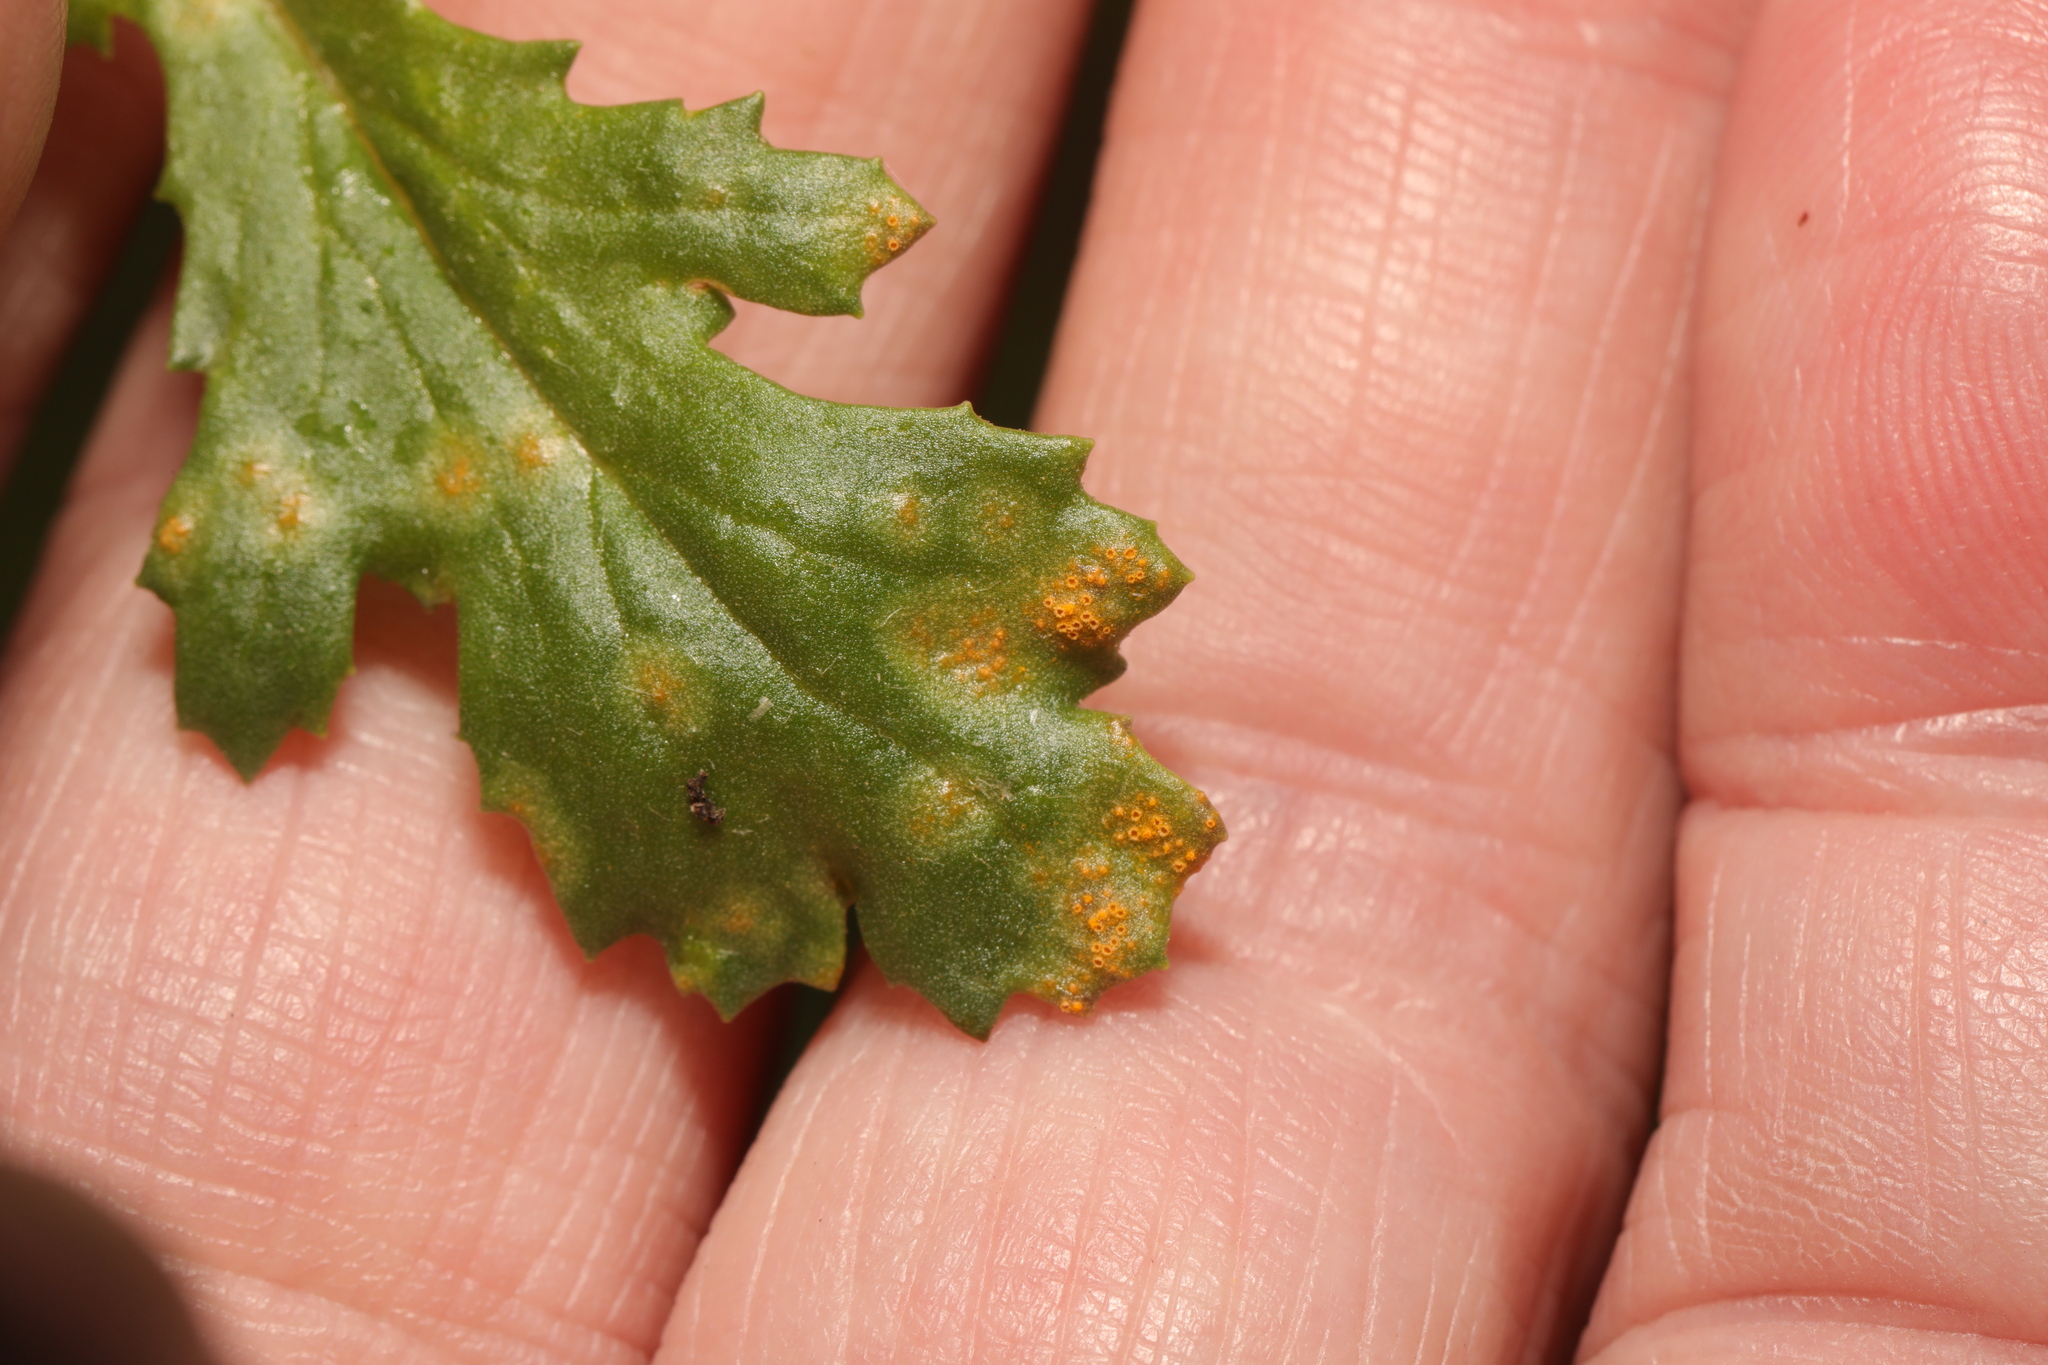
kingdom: Fungi
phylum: Basidiomycota
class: Pucciniomycetes
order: Pucciniales
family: Pucciniaceae
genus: Puccinia
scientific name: Puccinia lagenophorae
